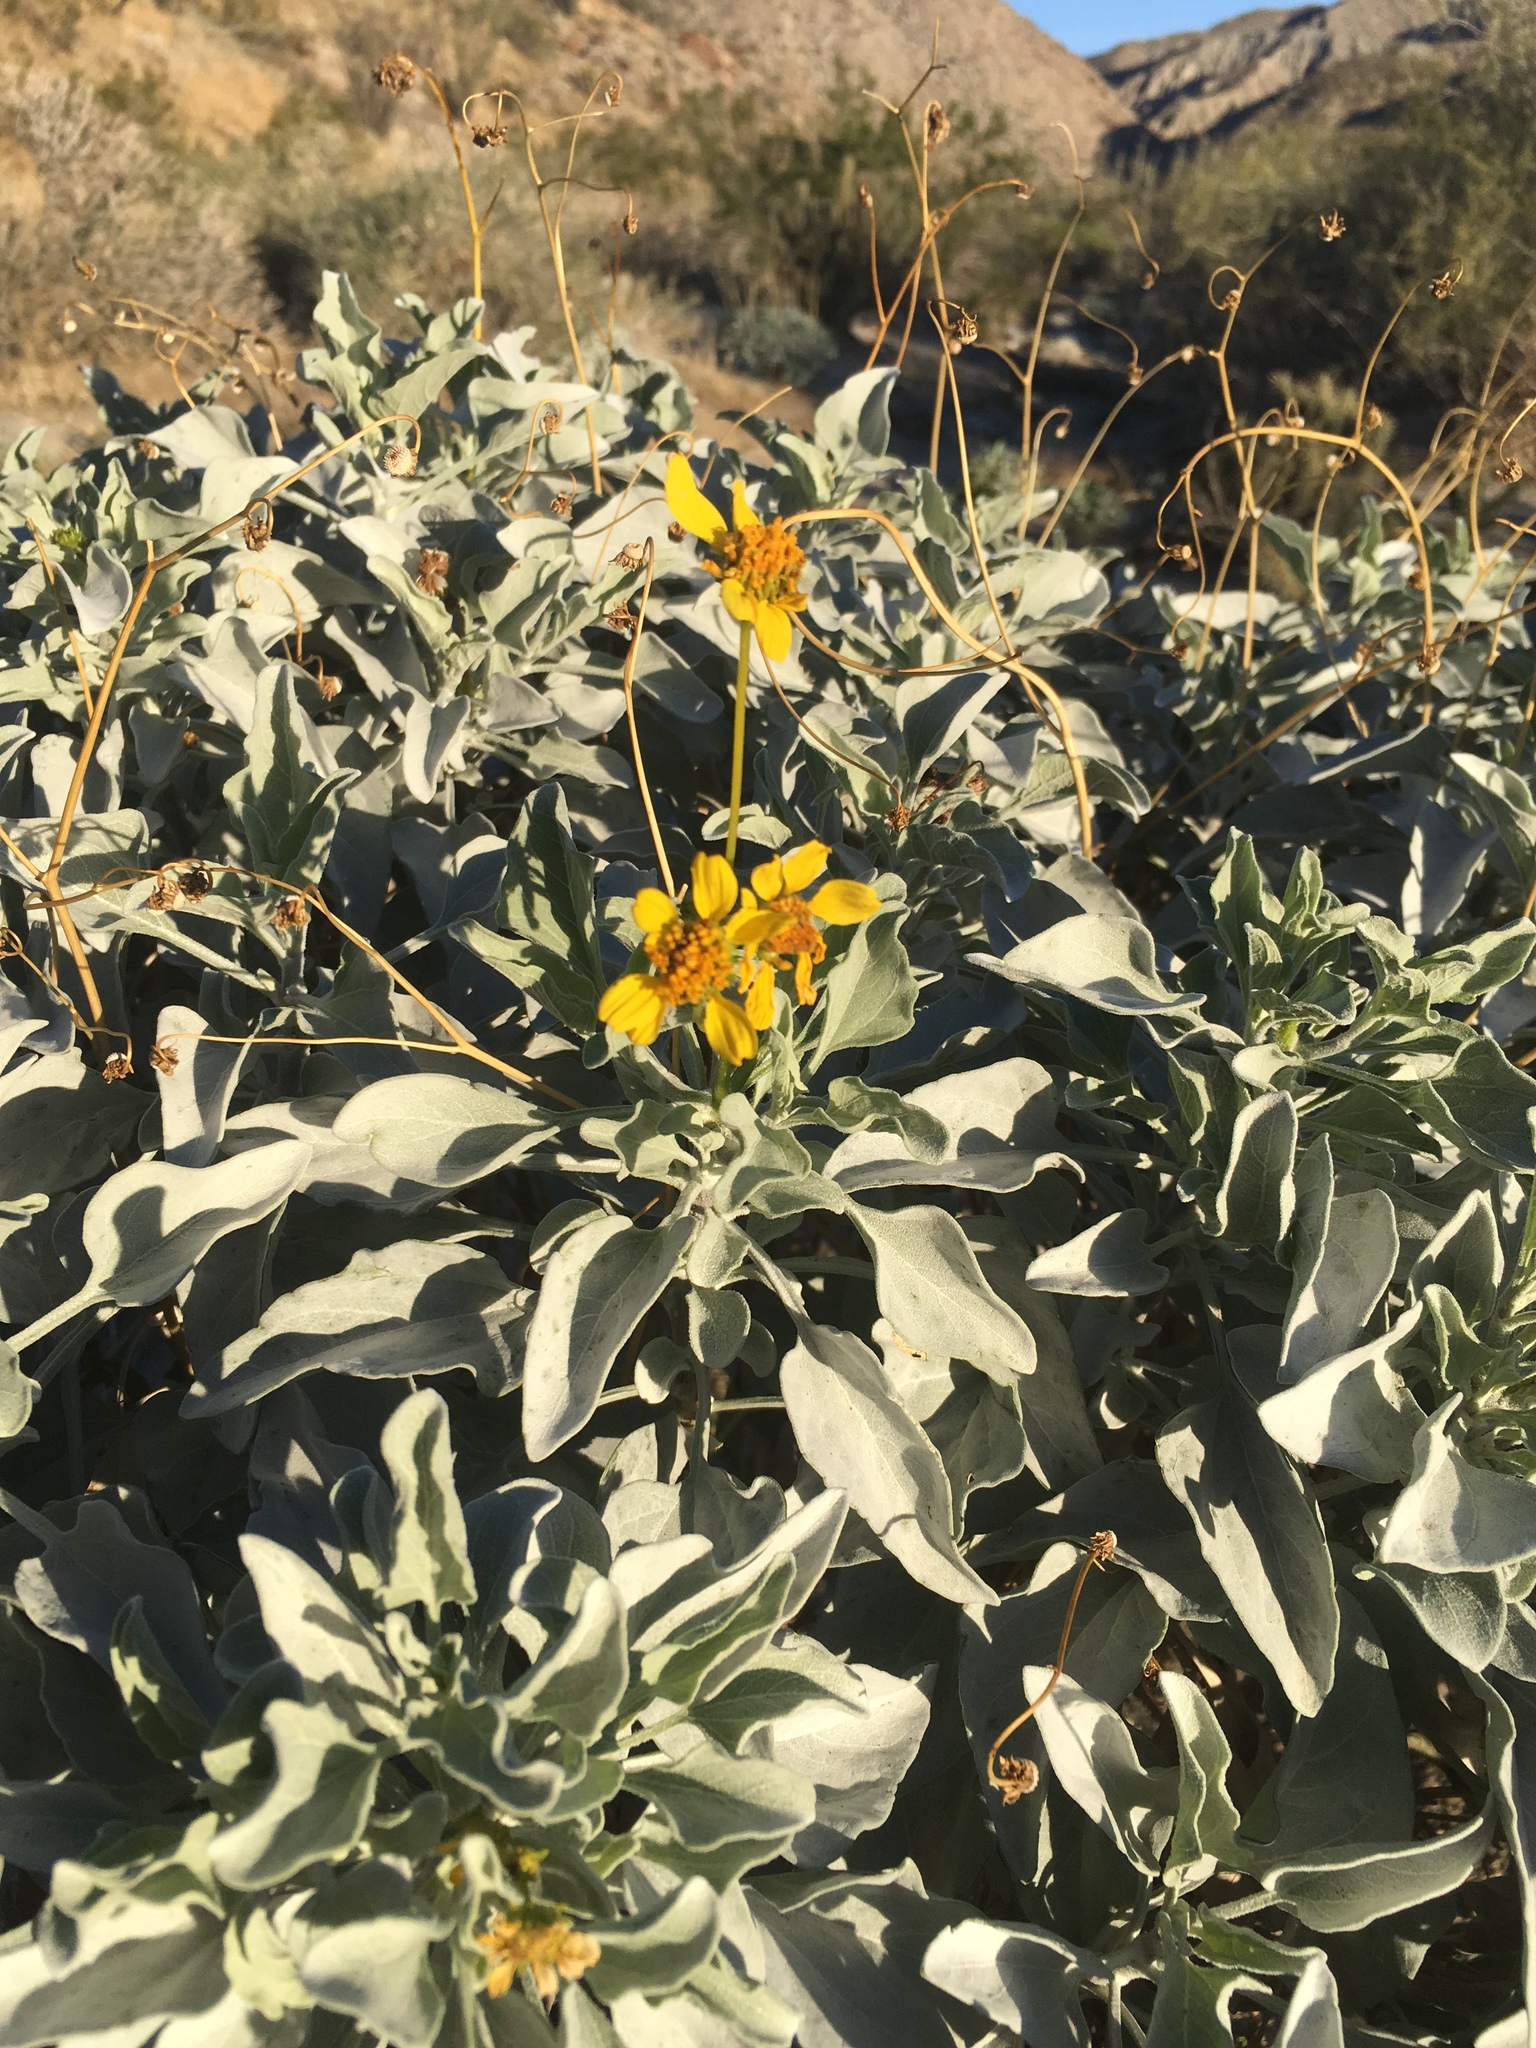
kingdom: Plantae
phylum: Tracheophyta
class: Magnoliopsida
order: Asterales
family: Asteraceae
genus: Encelia
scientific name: Encelia farinosa
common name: Brittlebush
